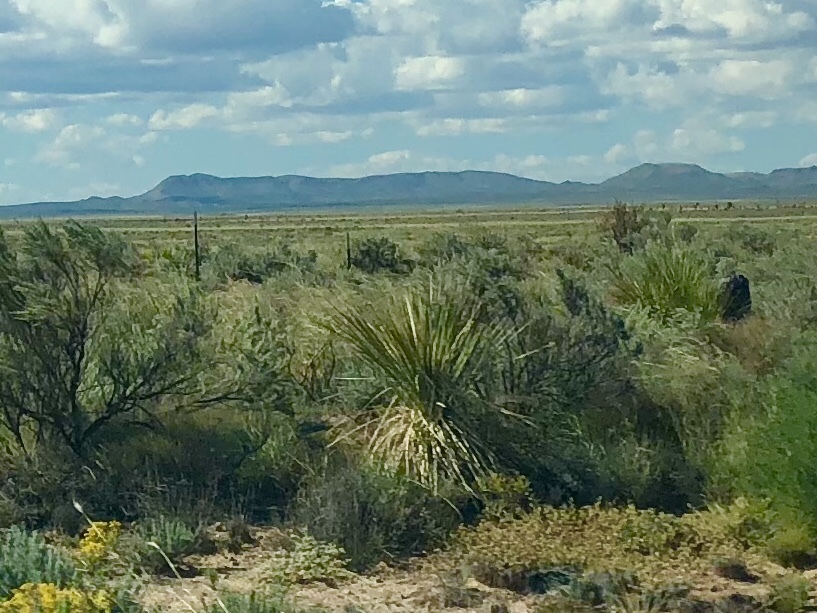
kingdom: Plantae
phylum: Tracheophyta
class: Liliopsida
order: Asparagales
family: Asparagaceae
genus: Yucca
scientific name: Yucca elata
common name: Palmella
